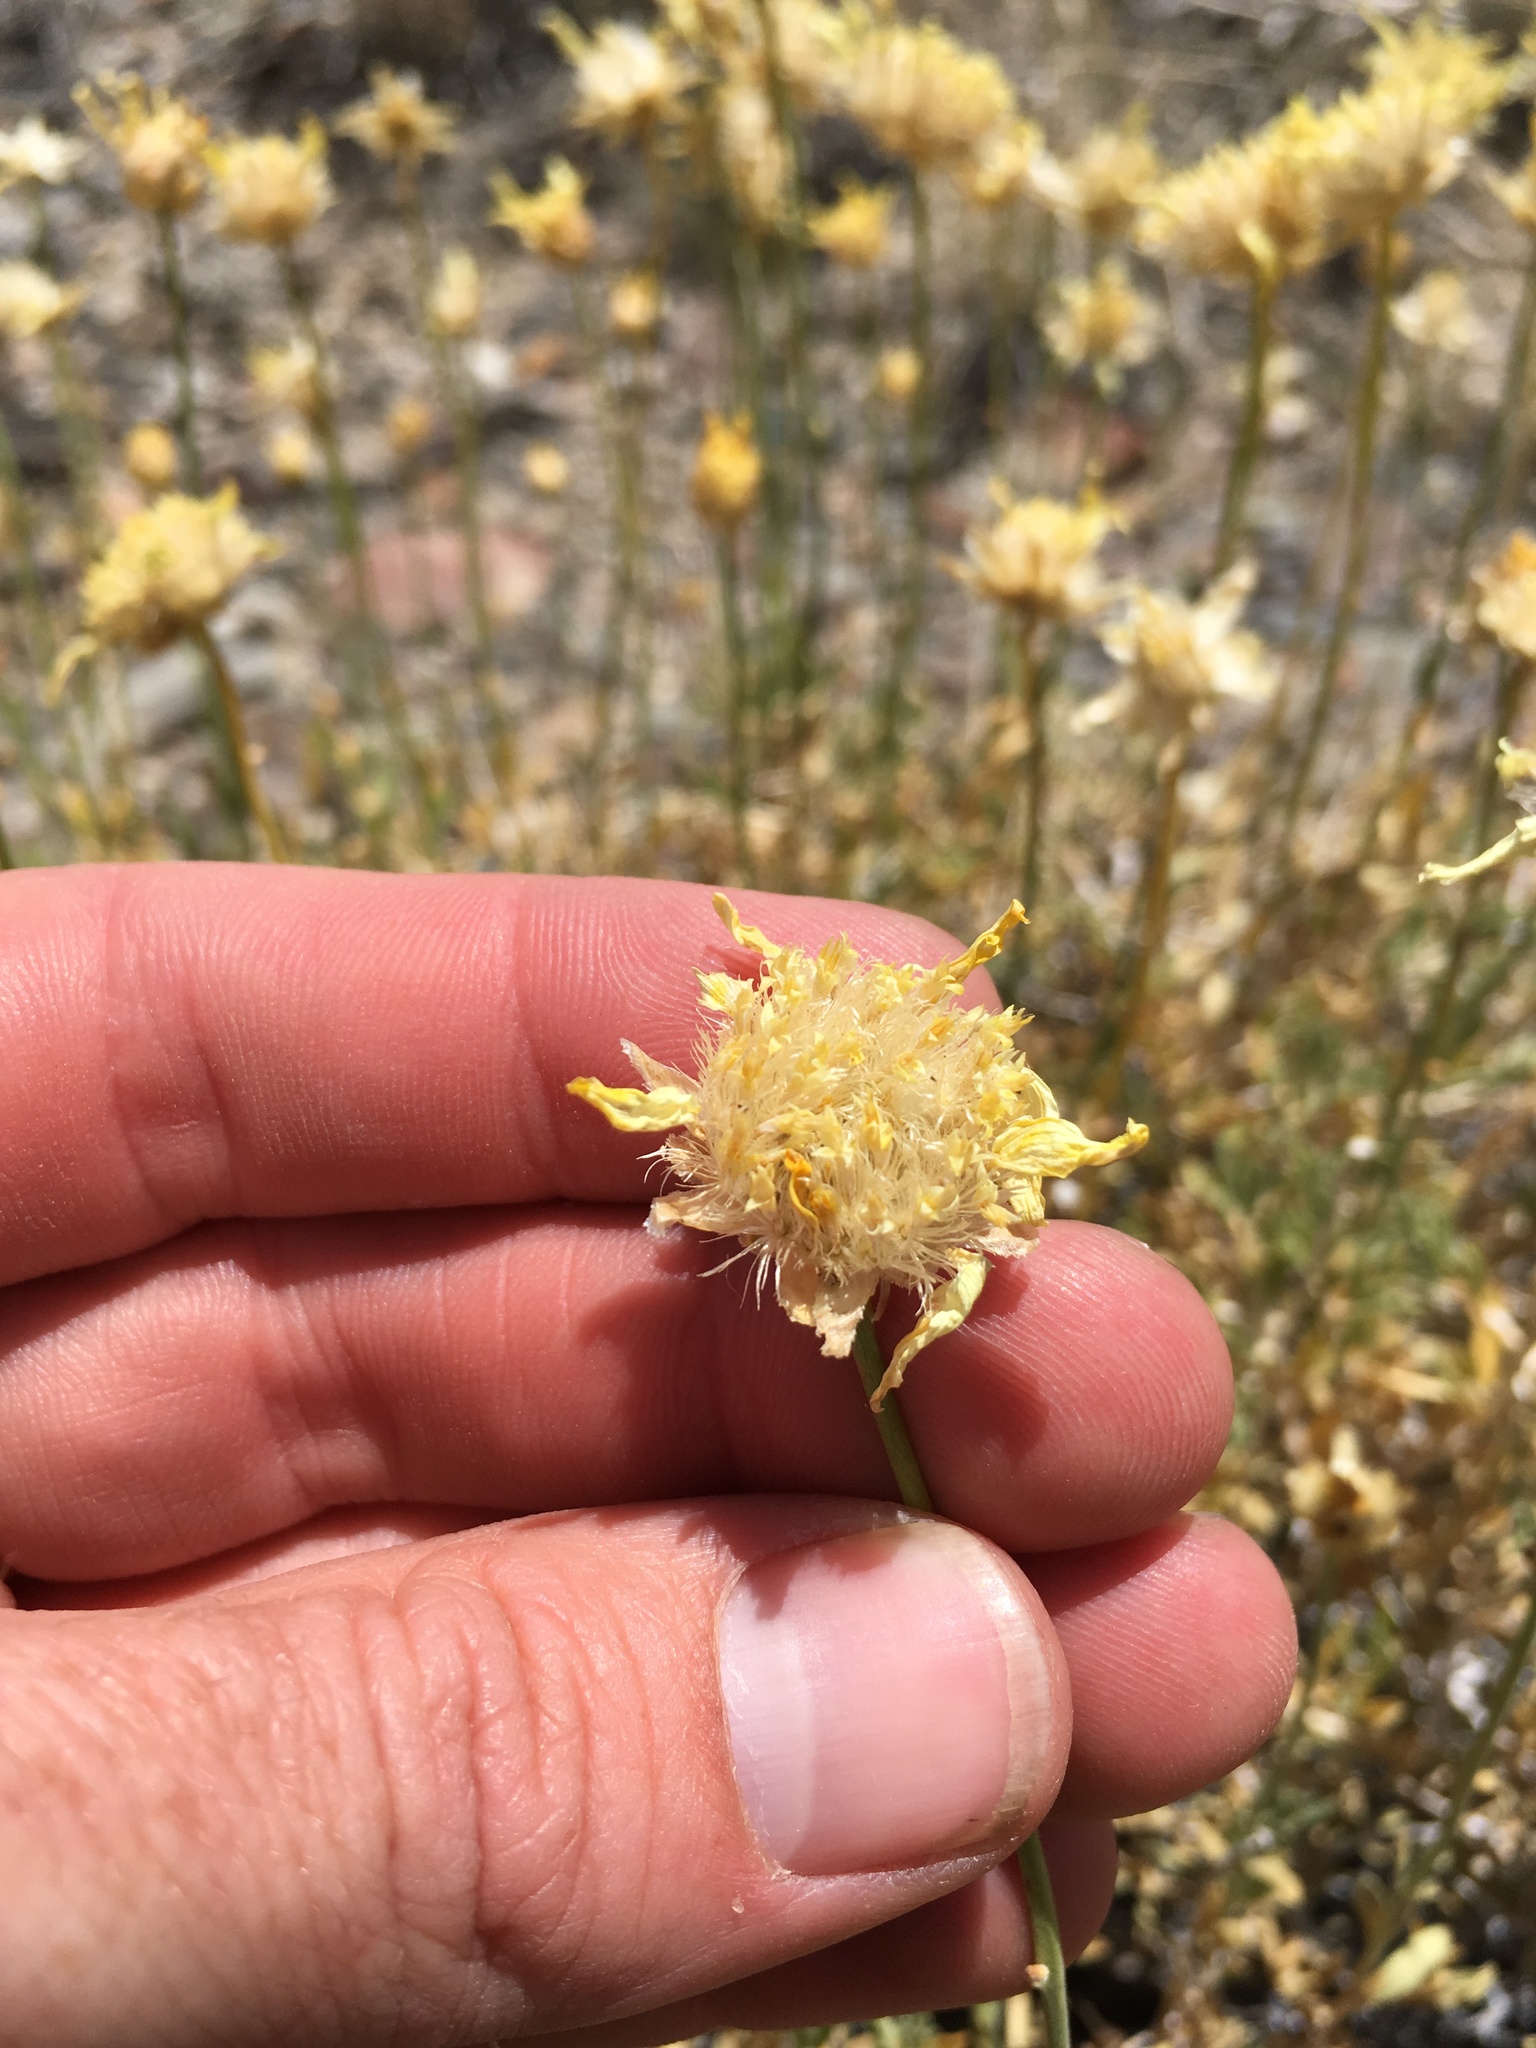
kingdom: Plantae
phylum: Tracheophyta
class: Magnoliopsida
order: Asterales
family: Asteraceae
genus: Acamptopappus
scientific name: Acamptopappus shockleyi
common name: Shockley's goldenhead
